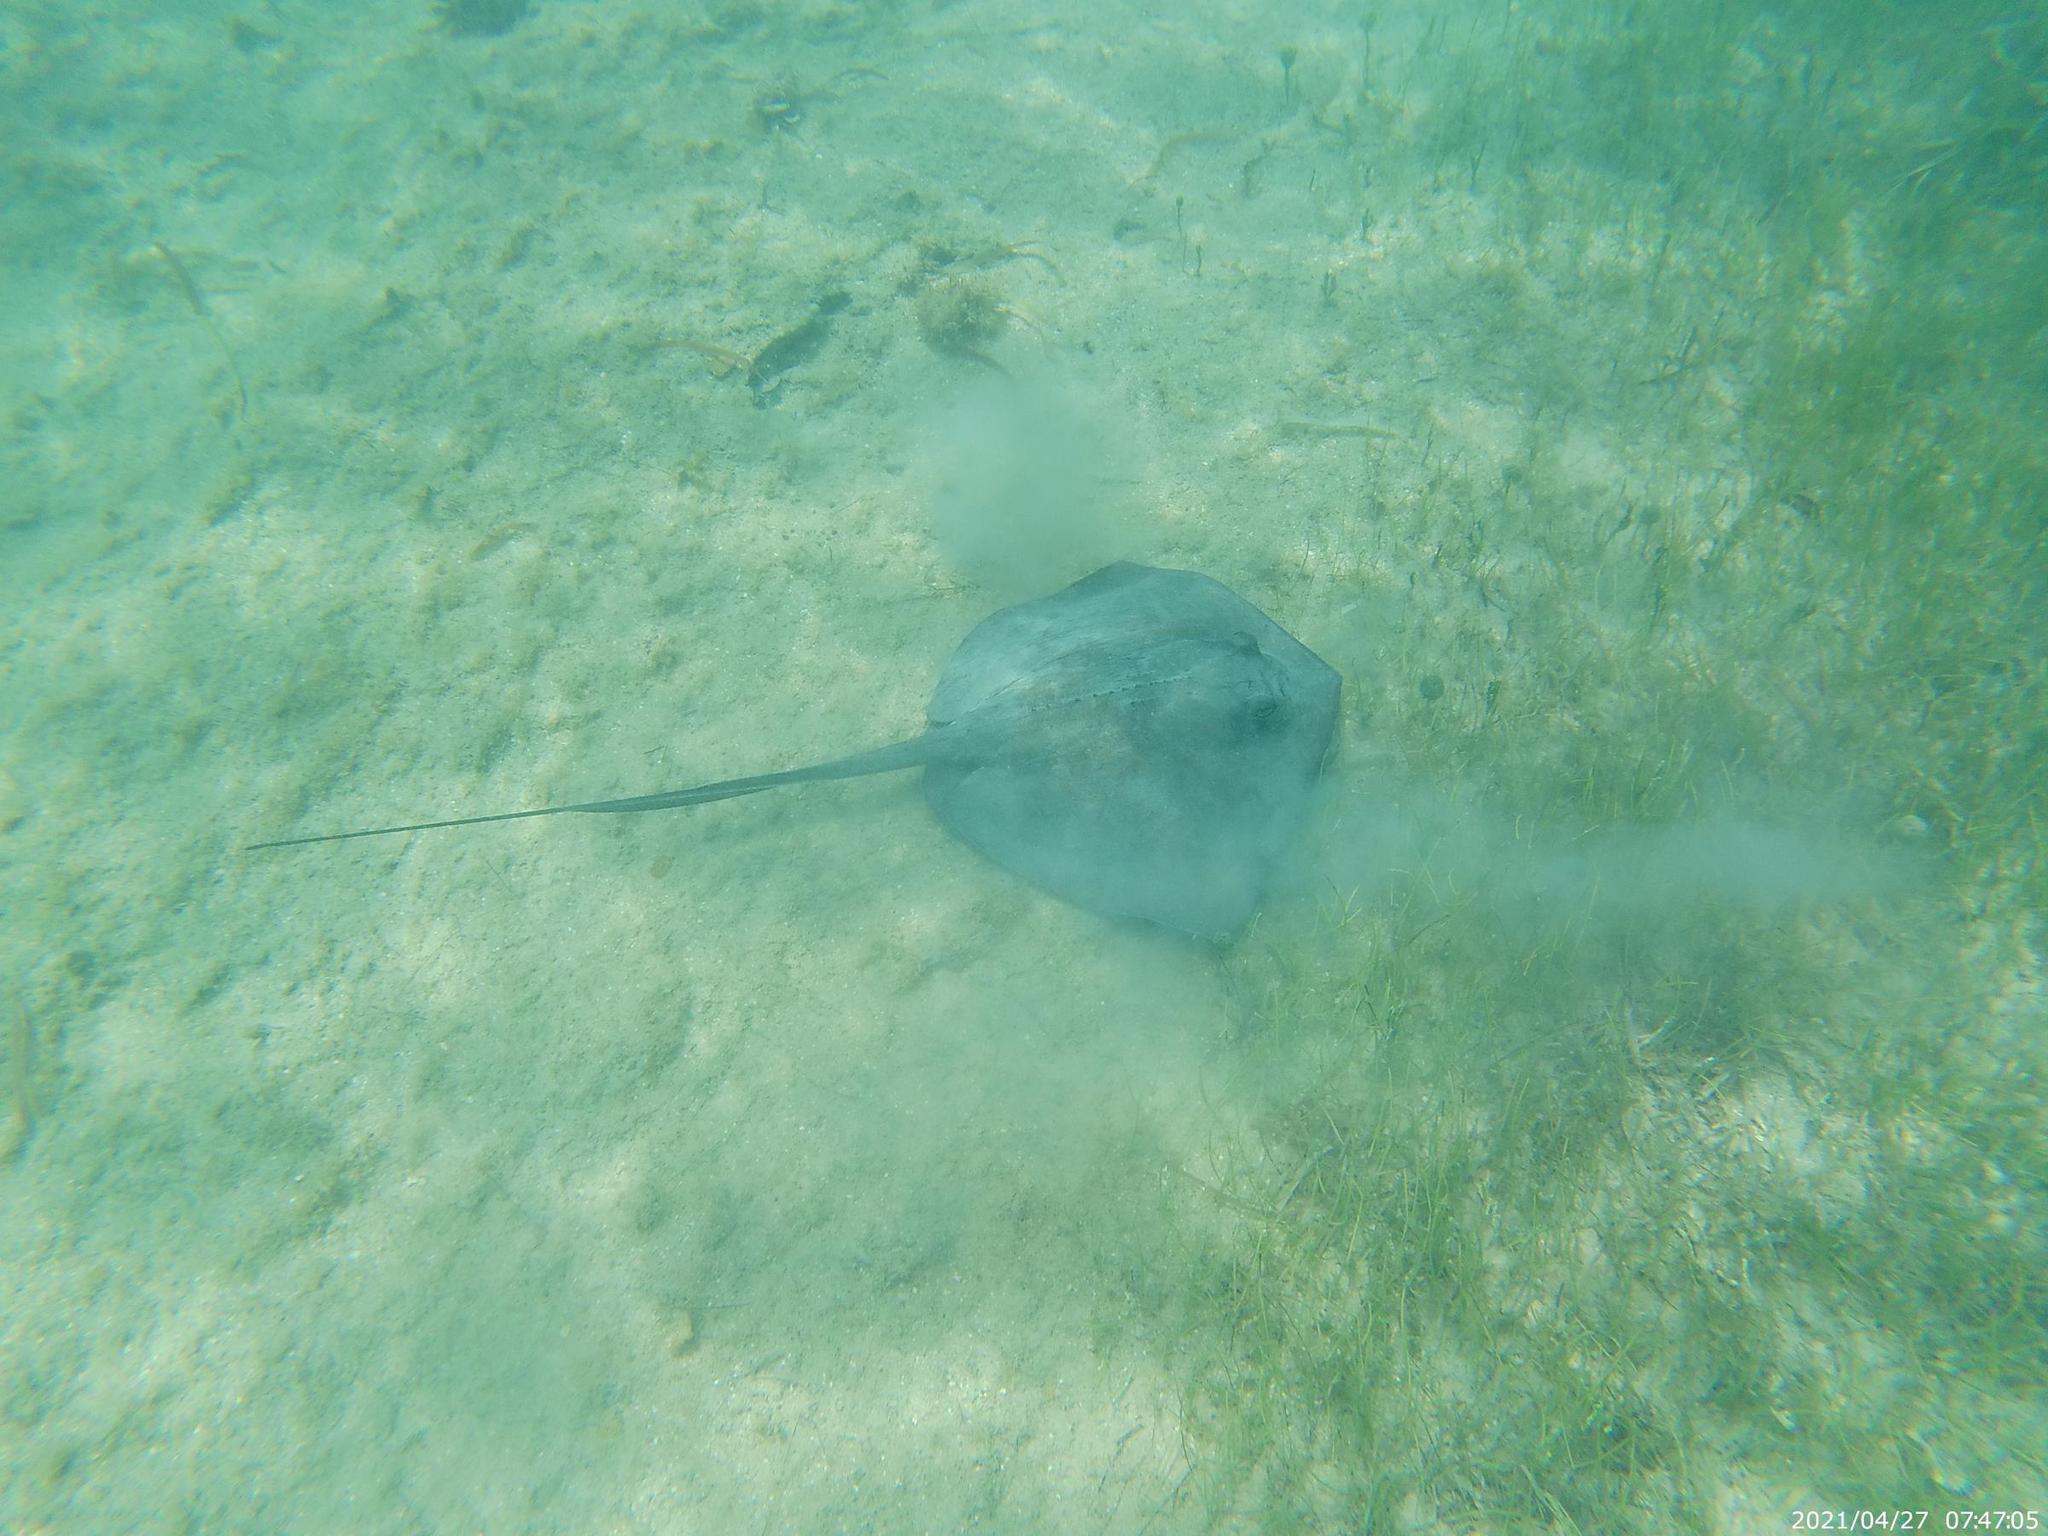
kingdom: Animalia
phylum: Chordata
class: Elasmobranchii
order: Myliobatiformes
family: Dasyatidae
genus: Hypanus
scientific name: Hypanus americanus
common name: Southern stingray
